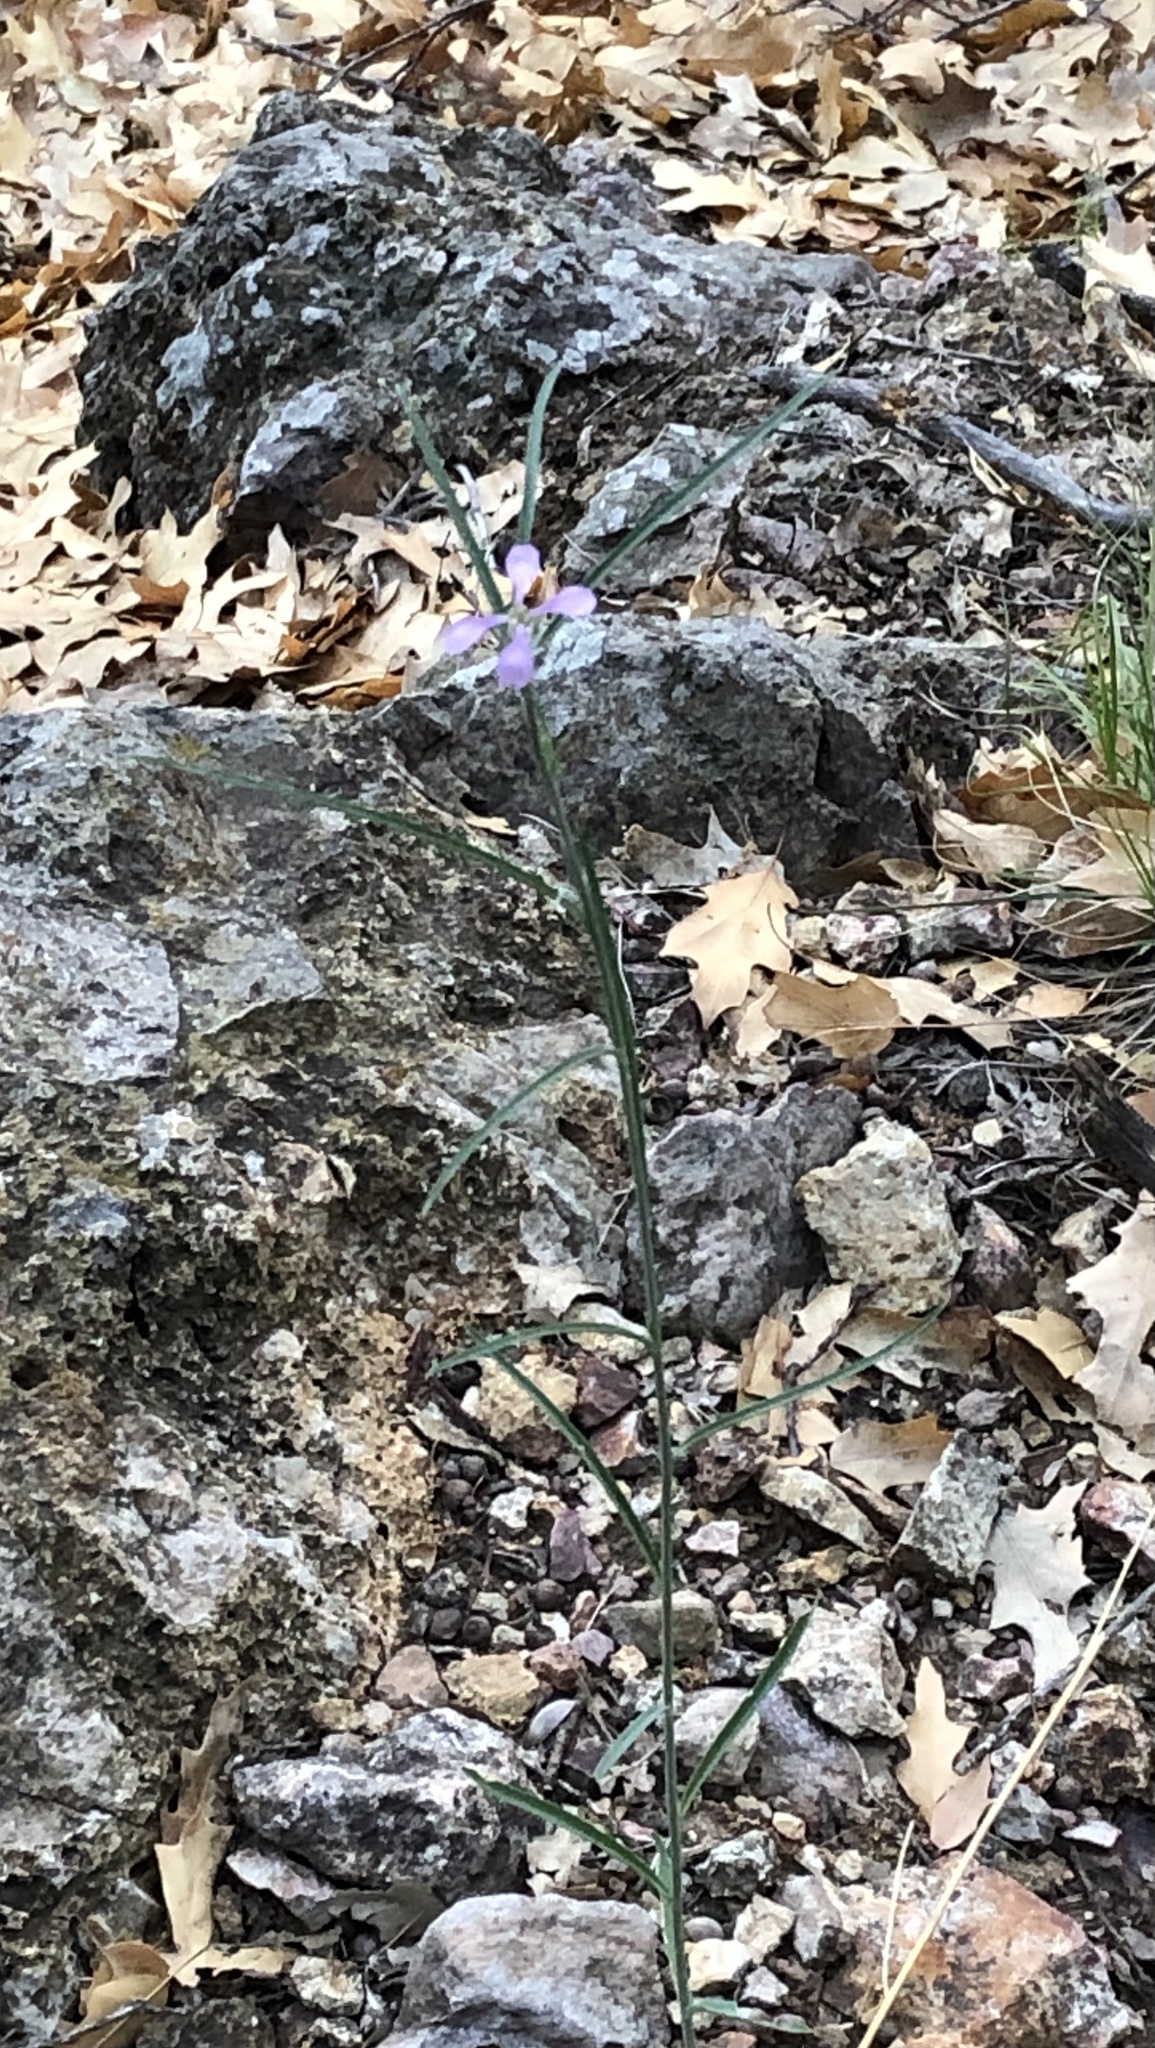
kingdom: Plantae
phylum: Tracheophyta
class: Magnoliopsida
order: Brassicales
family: Brassicaceae
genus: Hesperidanthus
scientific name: Hesperidanthus linearifolius
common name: Slim-leaf plains mustard
